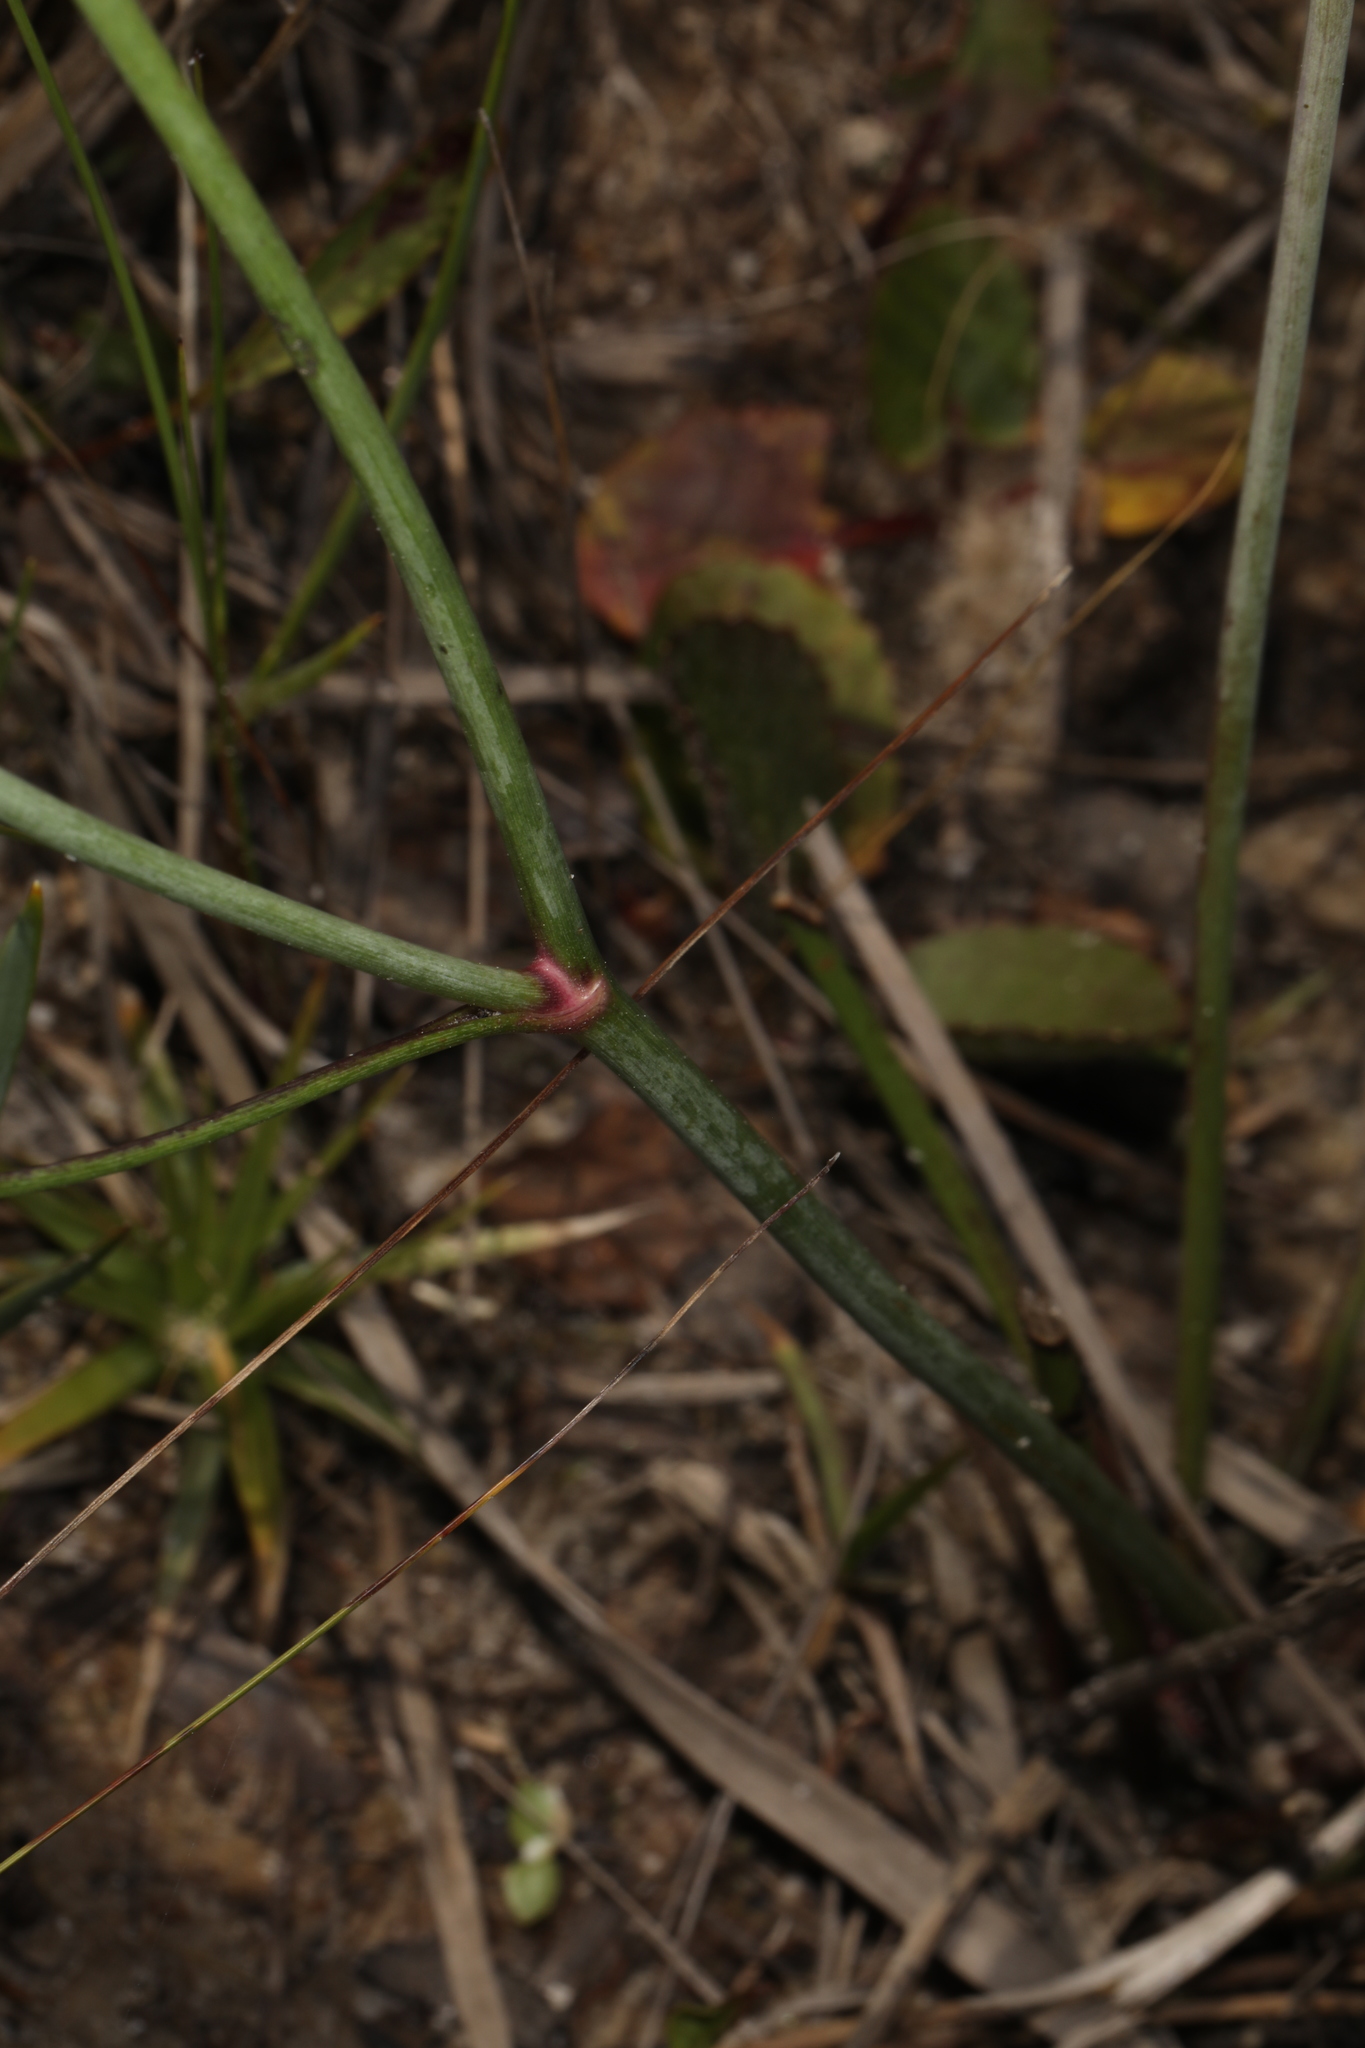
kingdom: Plantae
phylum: Tracheophyta
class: Magnoliopsida
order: Asterales
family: Asteraceae
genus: Coreopsis
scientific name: Coreopsis nudata
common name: Purple tickseed
